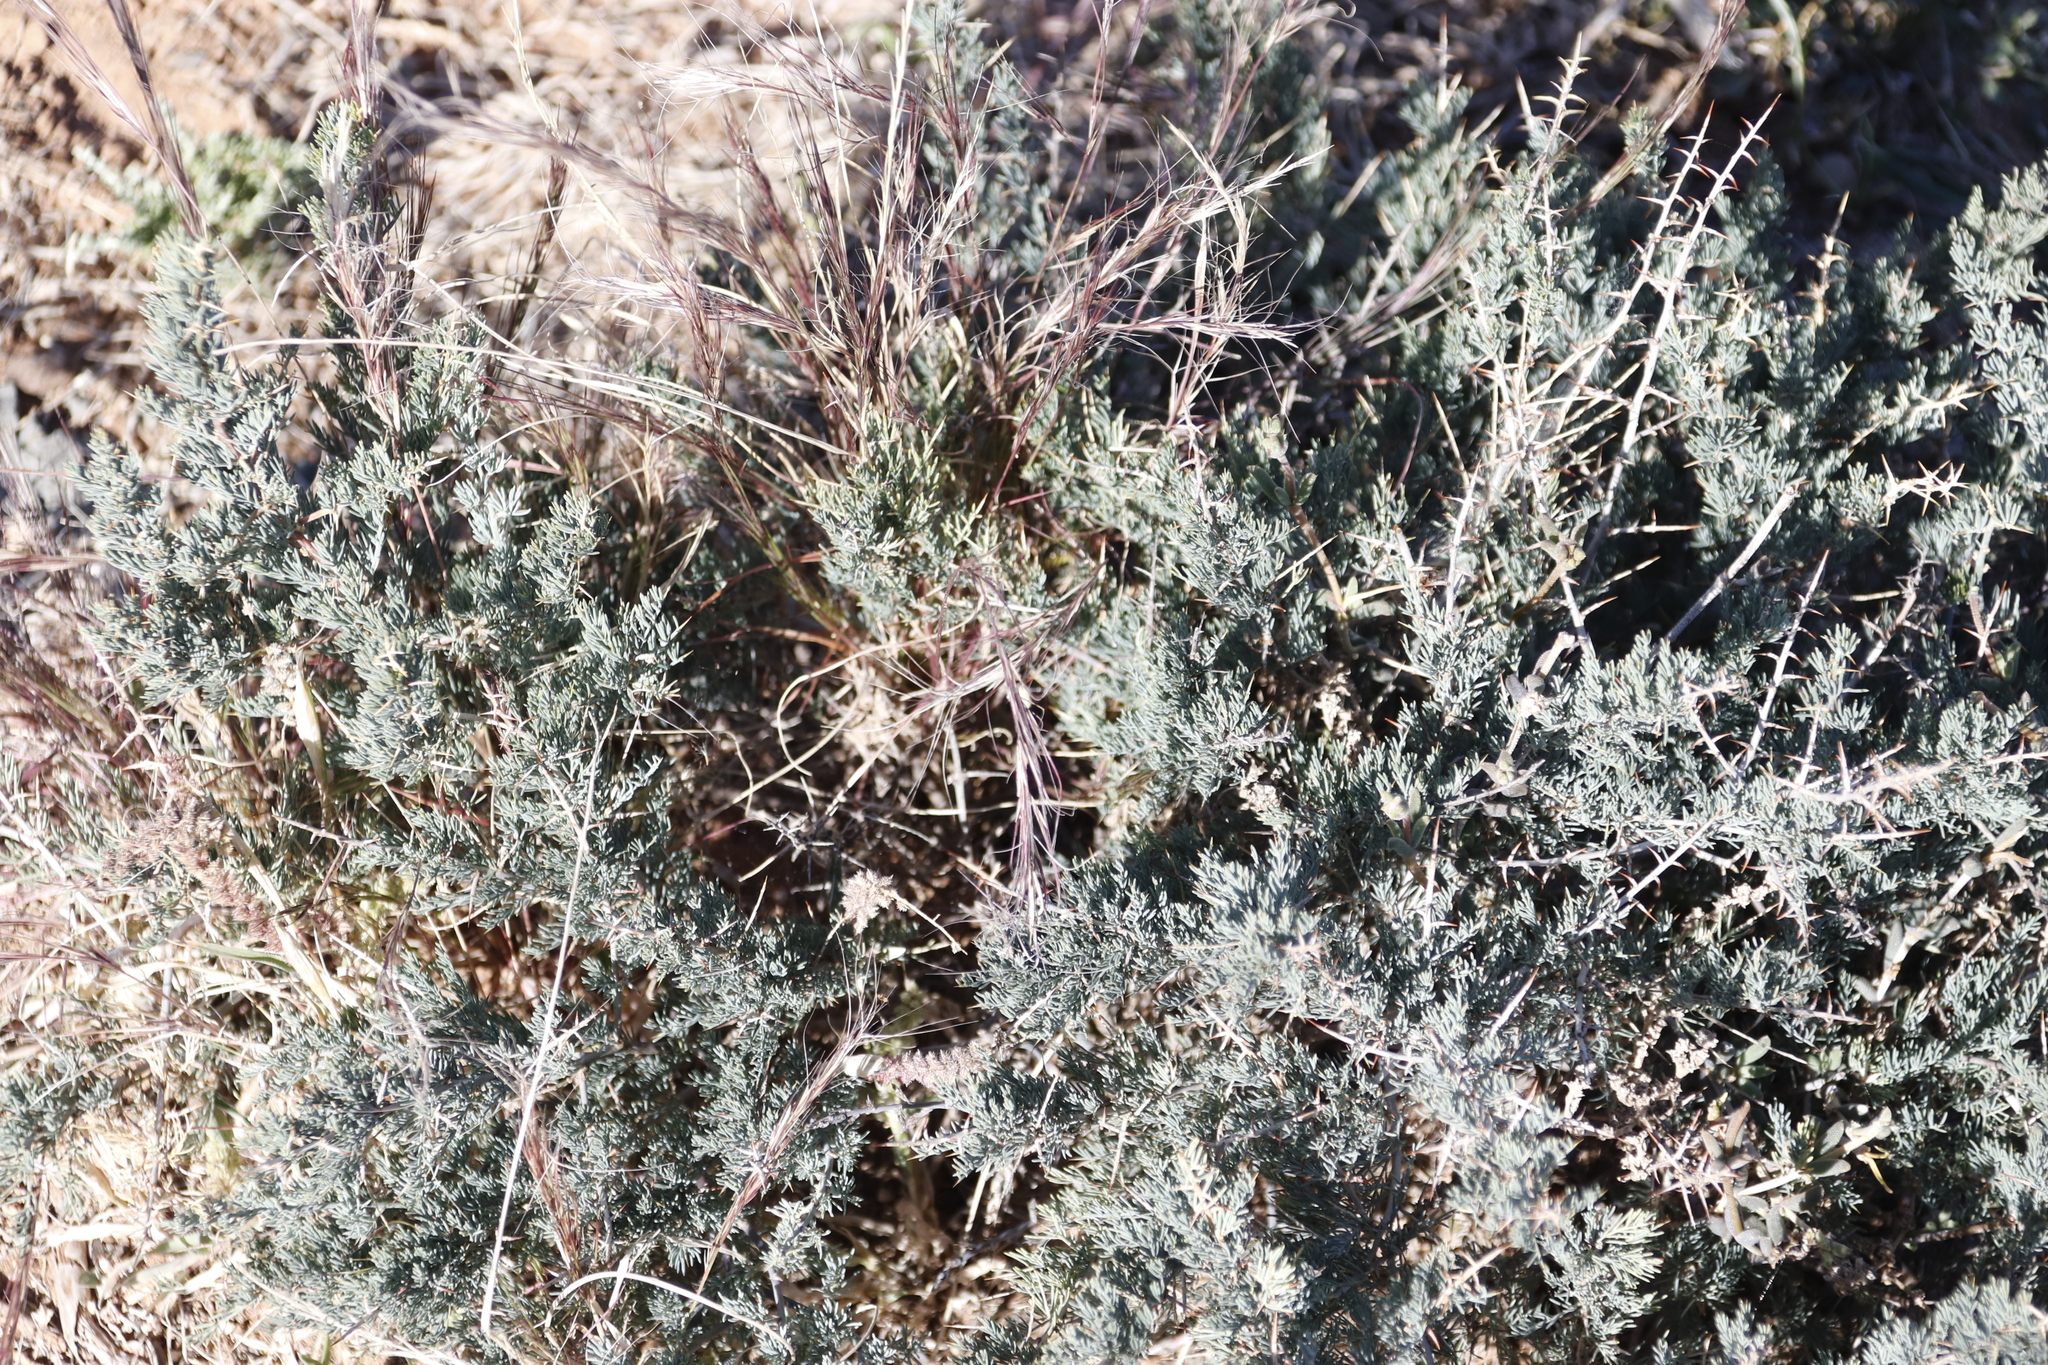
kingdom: Plantae
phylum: Tracheophyta
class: Liliopsida
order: Asparagales
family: Asparagaceae
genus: Asparagus
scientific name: Asparagus glaucus
